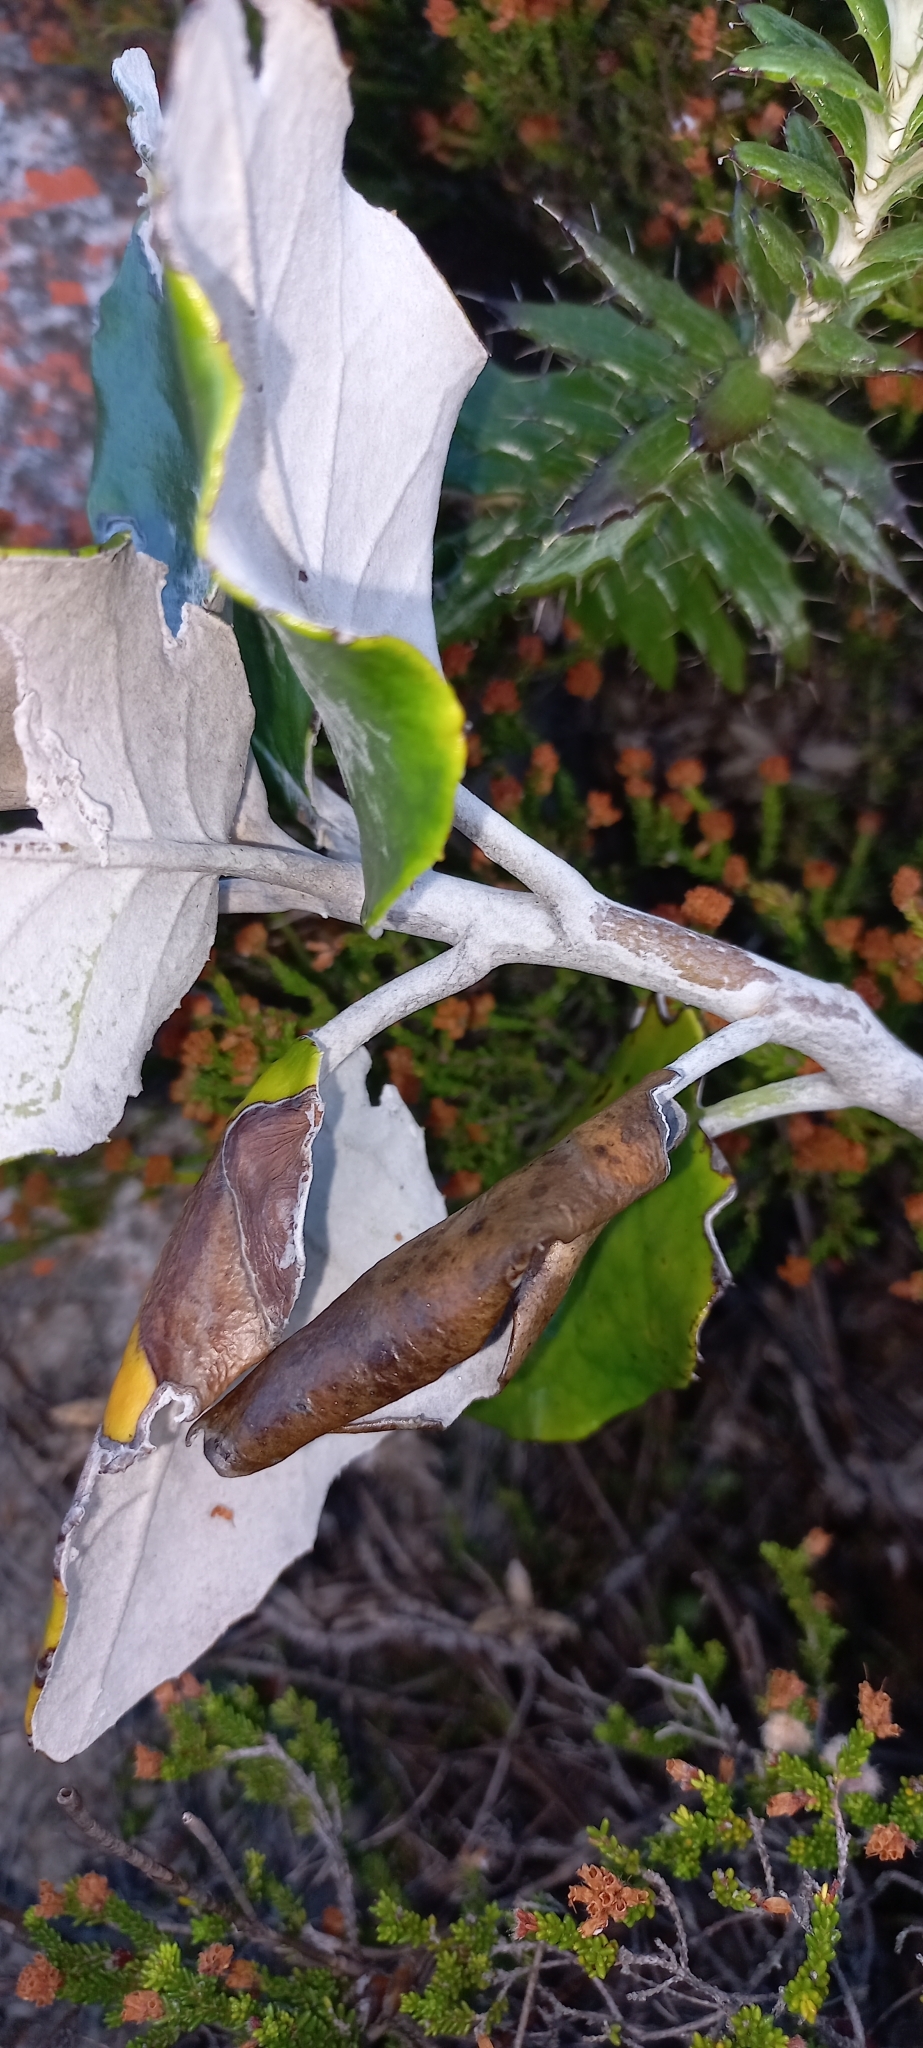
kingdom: Plantae
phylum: Tracheophyta
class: Magnoliopsida
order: Asterales
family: Asteraceae
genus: Capelio
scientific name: Capelio tabularis
